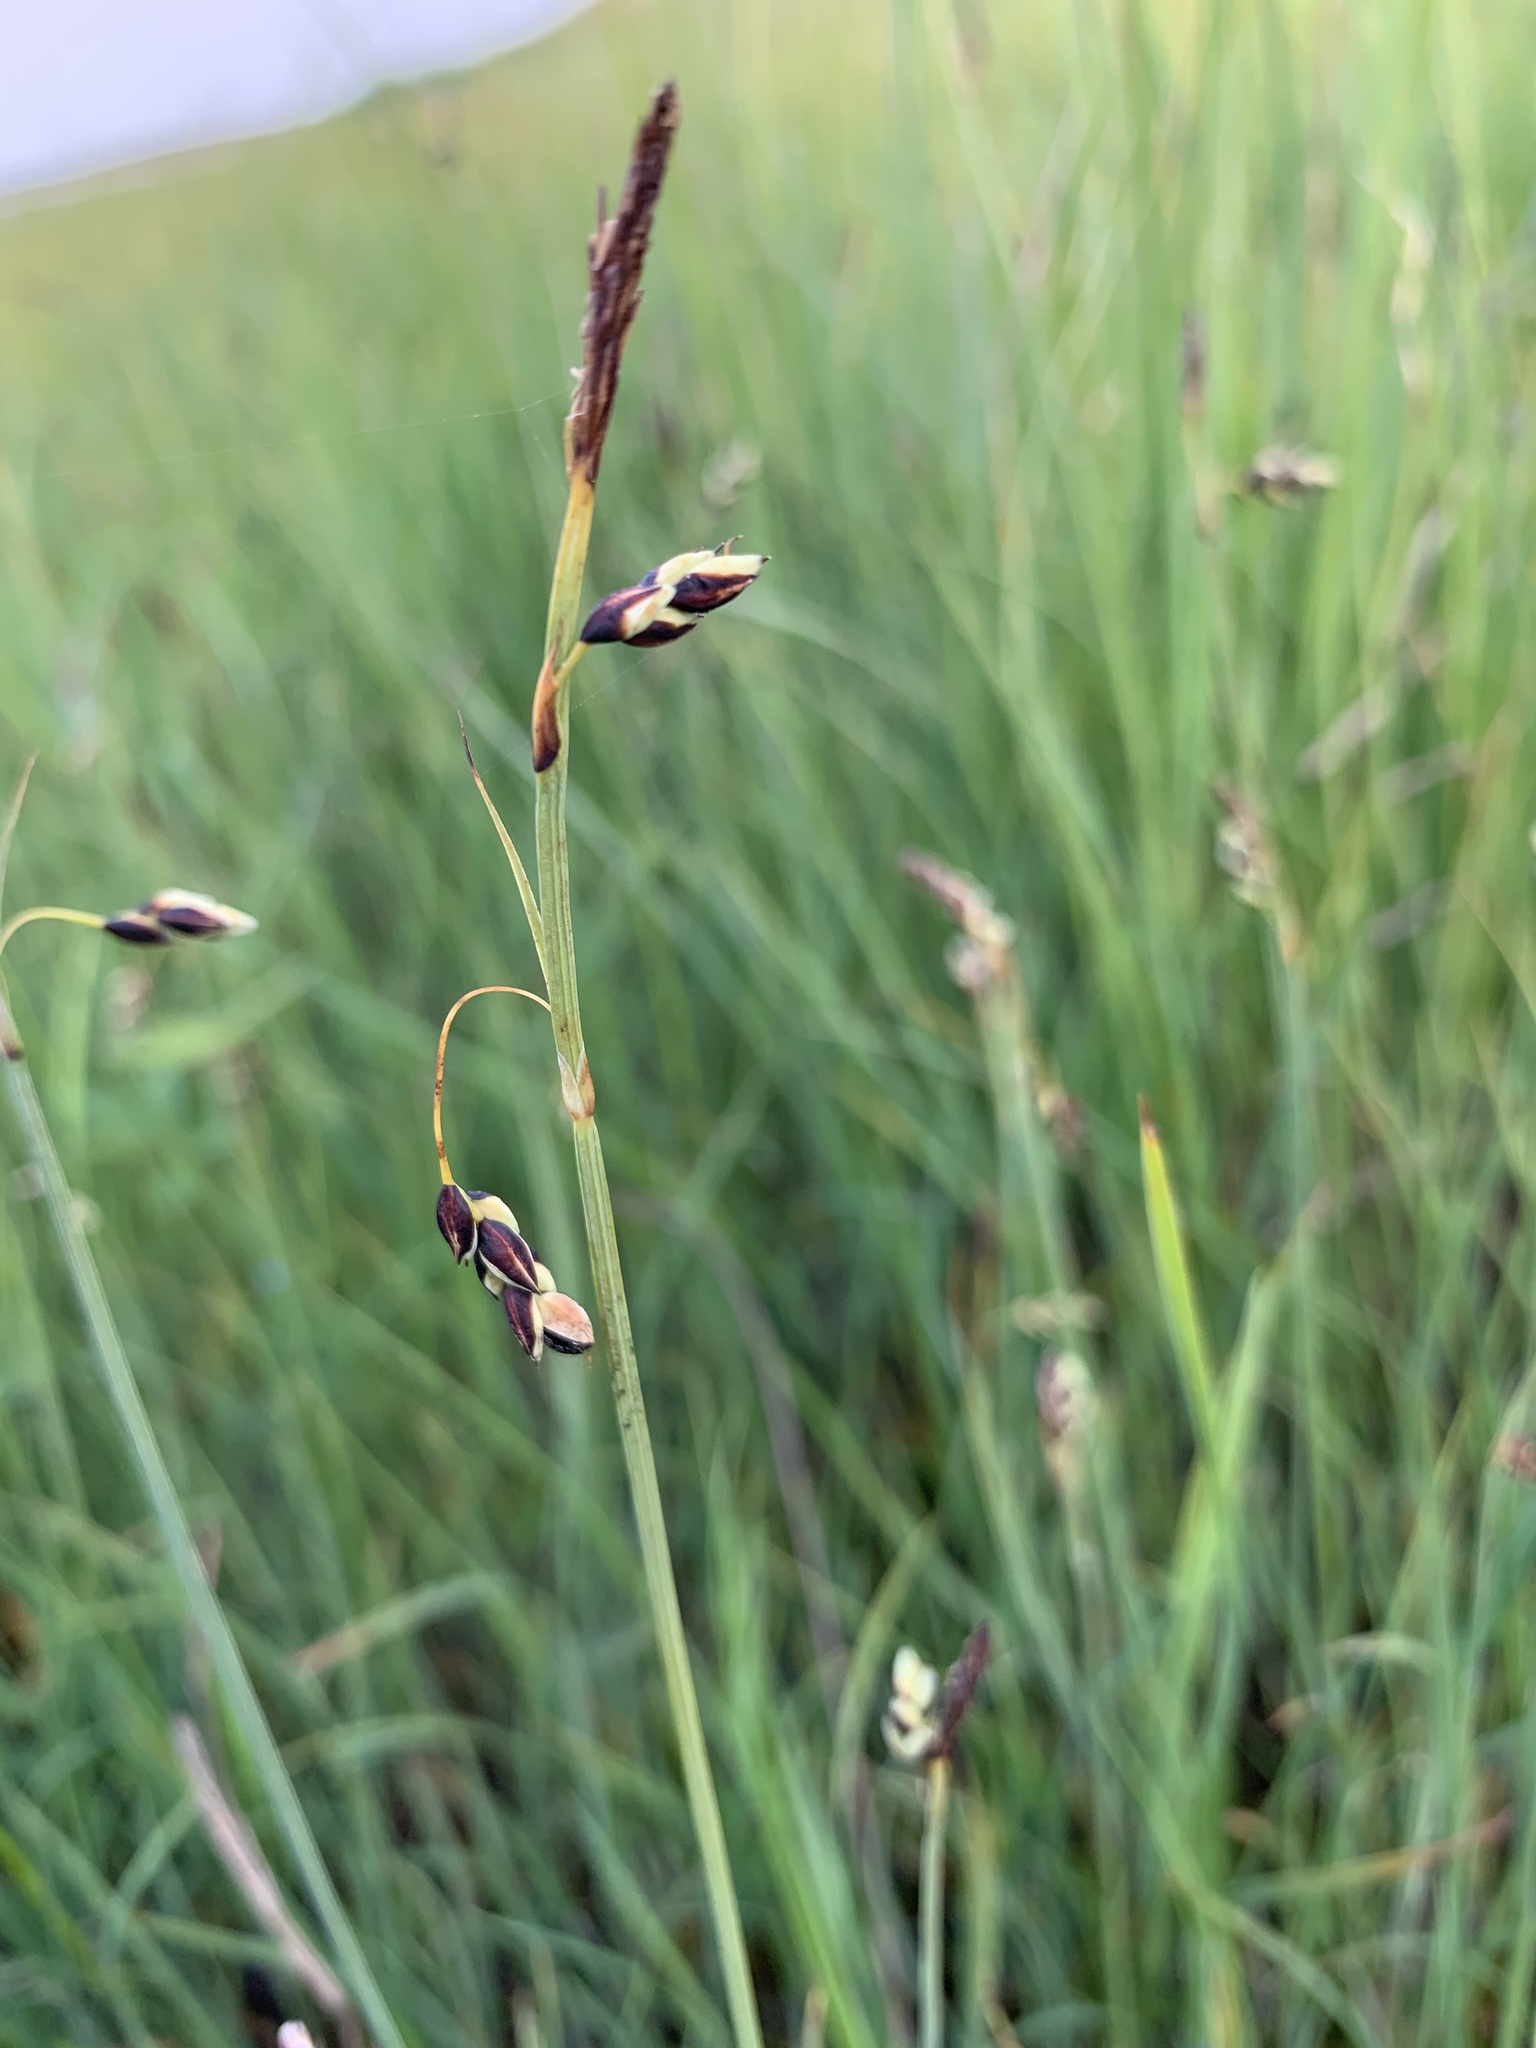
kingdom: Plantae
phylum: Tracheophyta
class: Liliopsida
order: Poales
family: Cyperaceae
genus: Carex
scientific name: Carex rariflora
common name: Loose-flowered alpine sedge
